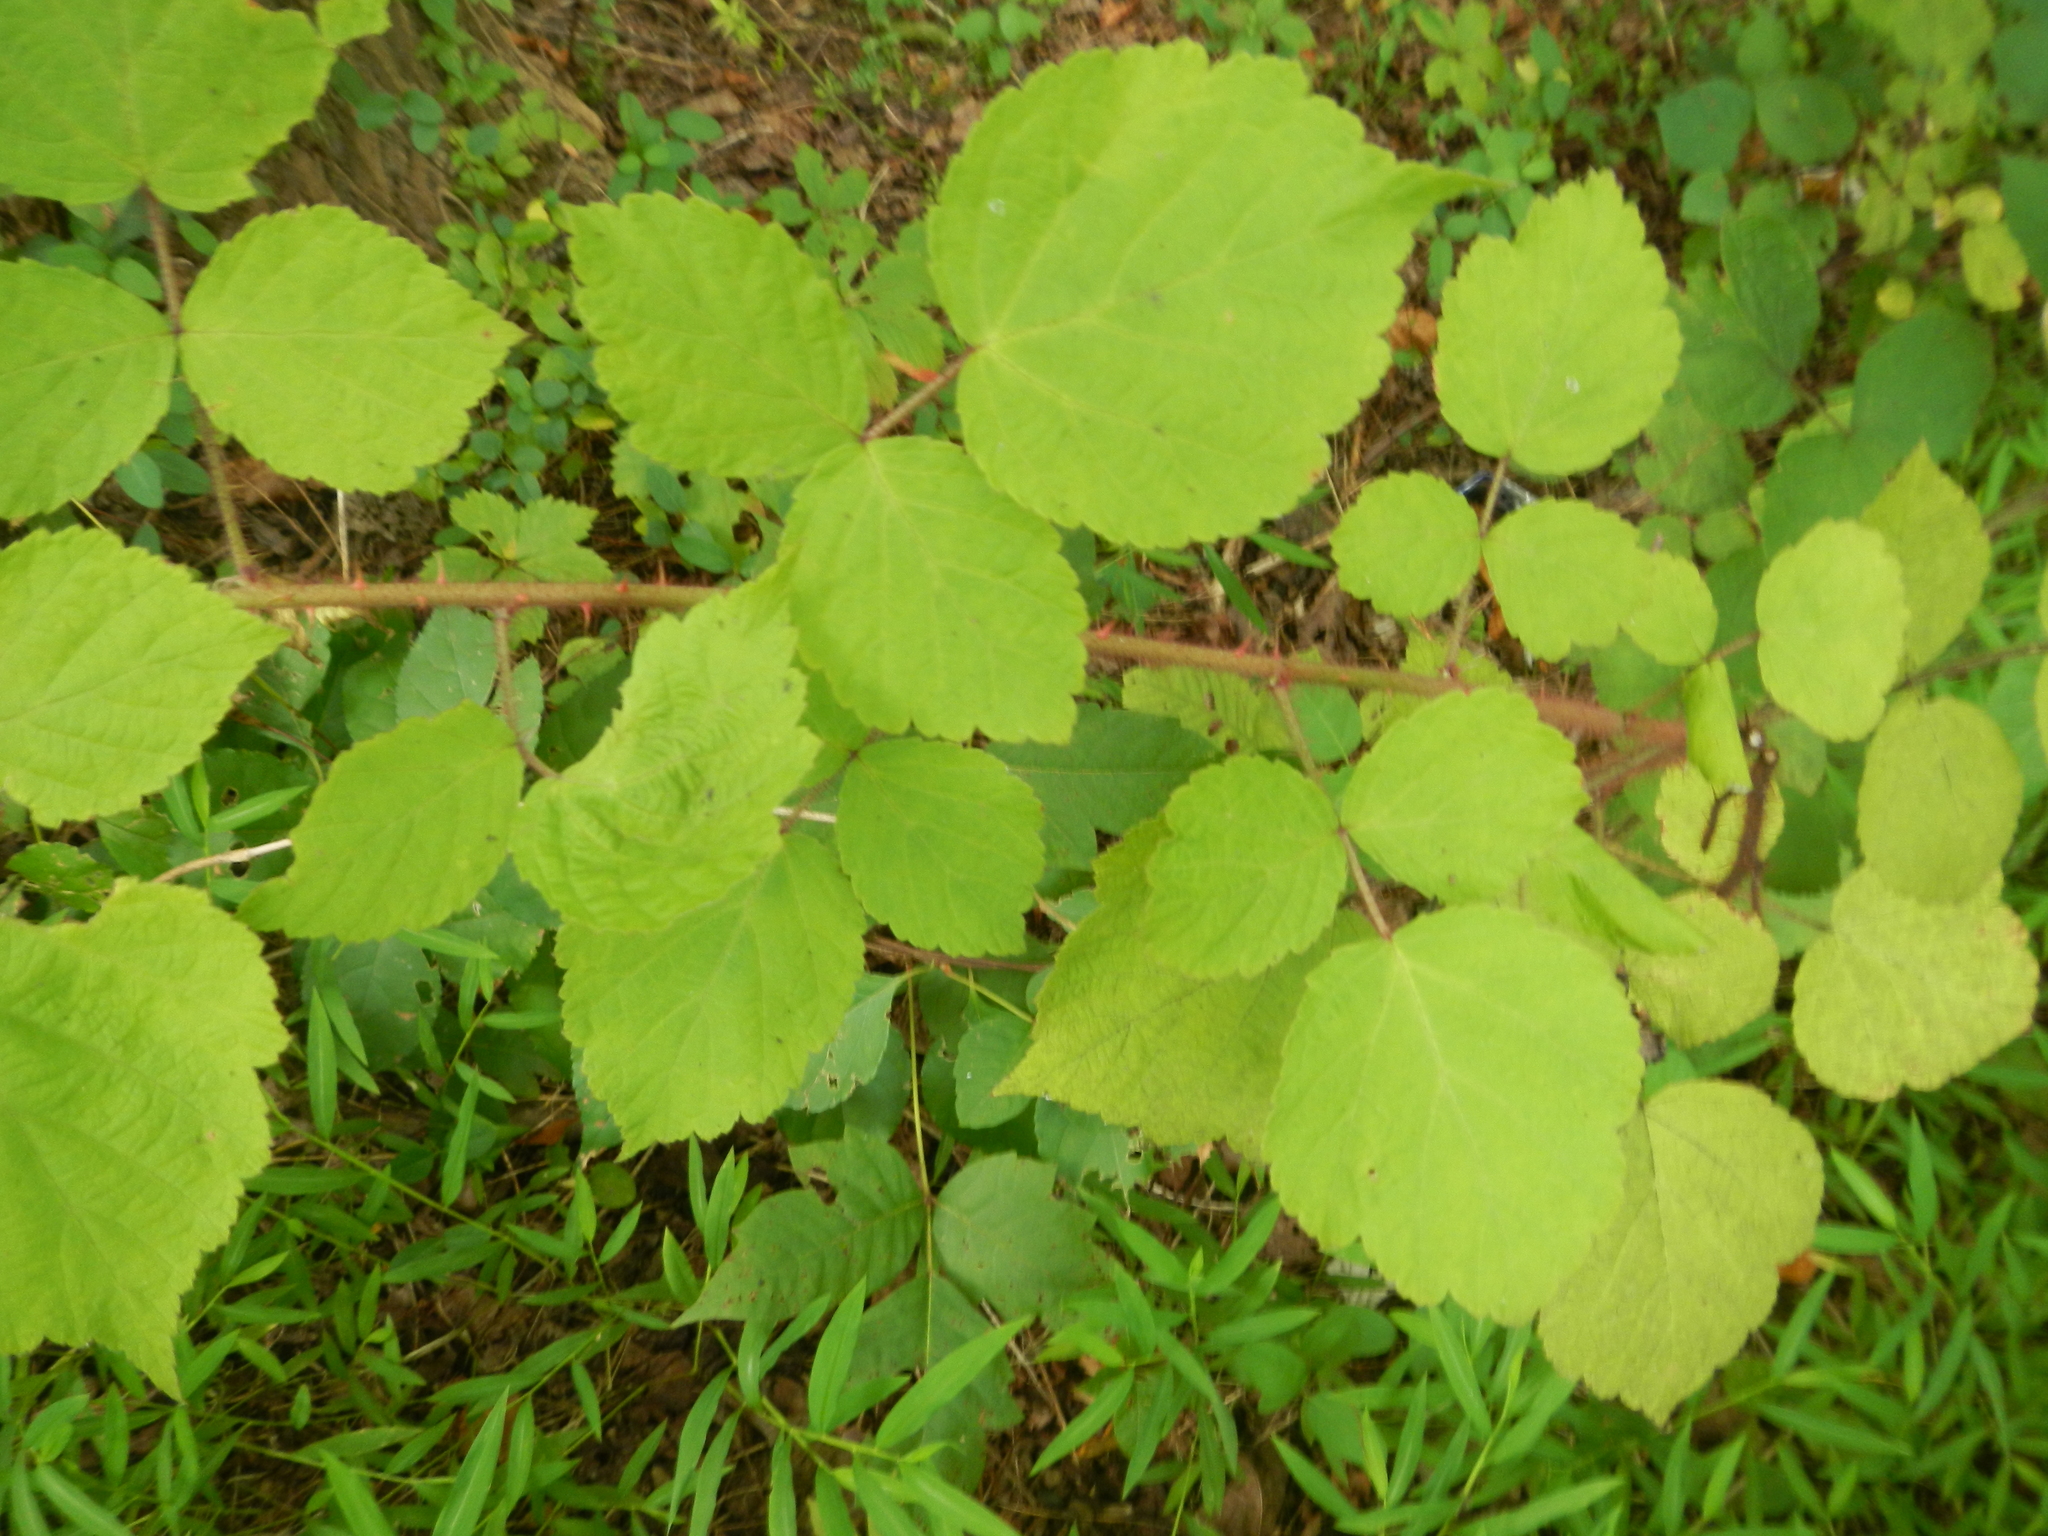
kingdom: Plantae
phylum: Tracheophyta
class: Magnoliopsida
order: Rosales
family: Rosaceae
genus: Rubus
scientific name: Rubus phoenicolasius
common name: Japanese wineberry
